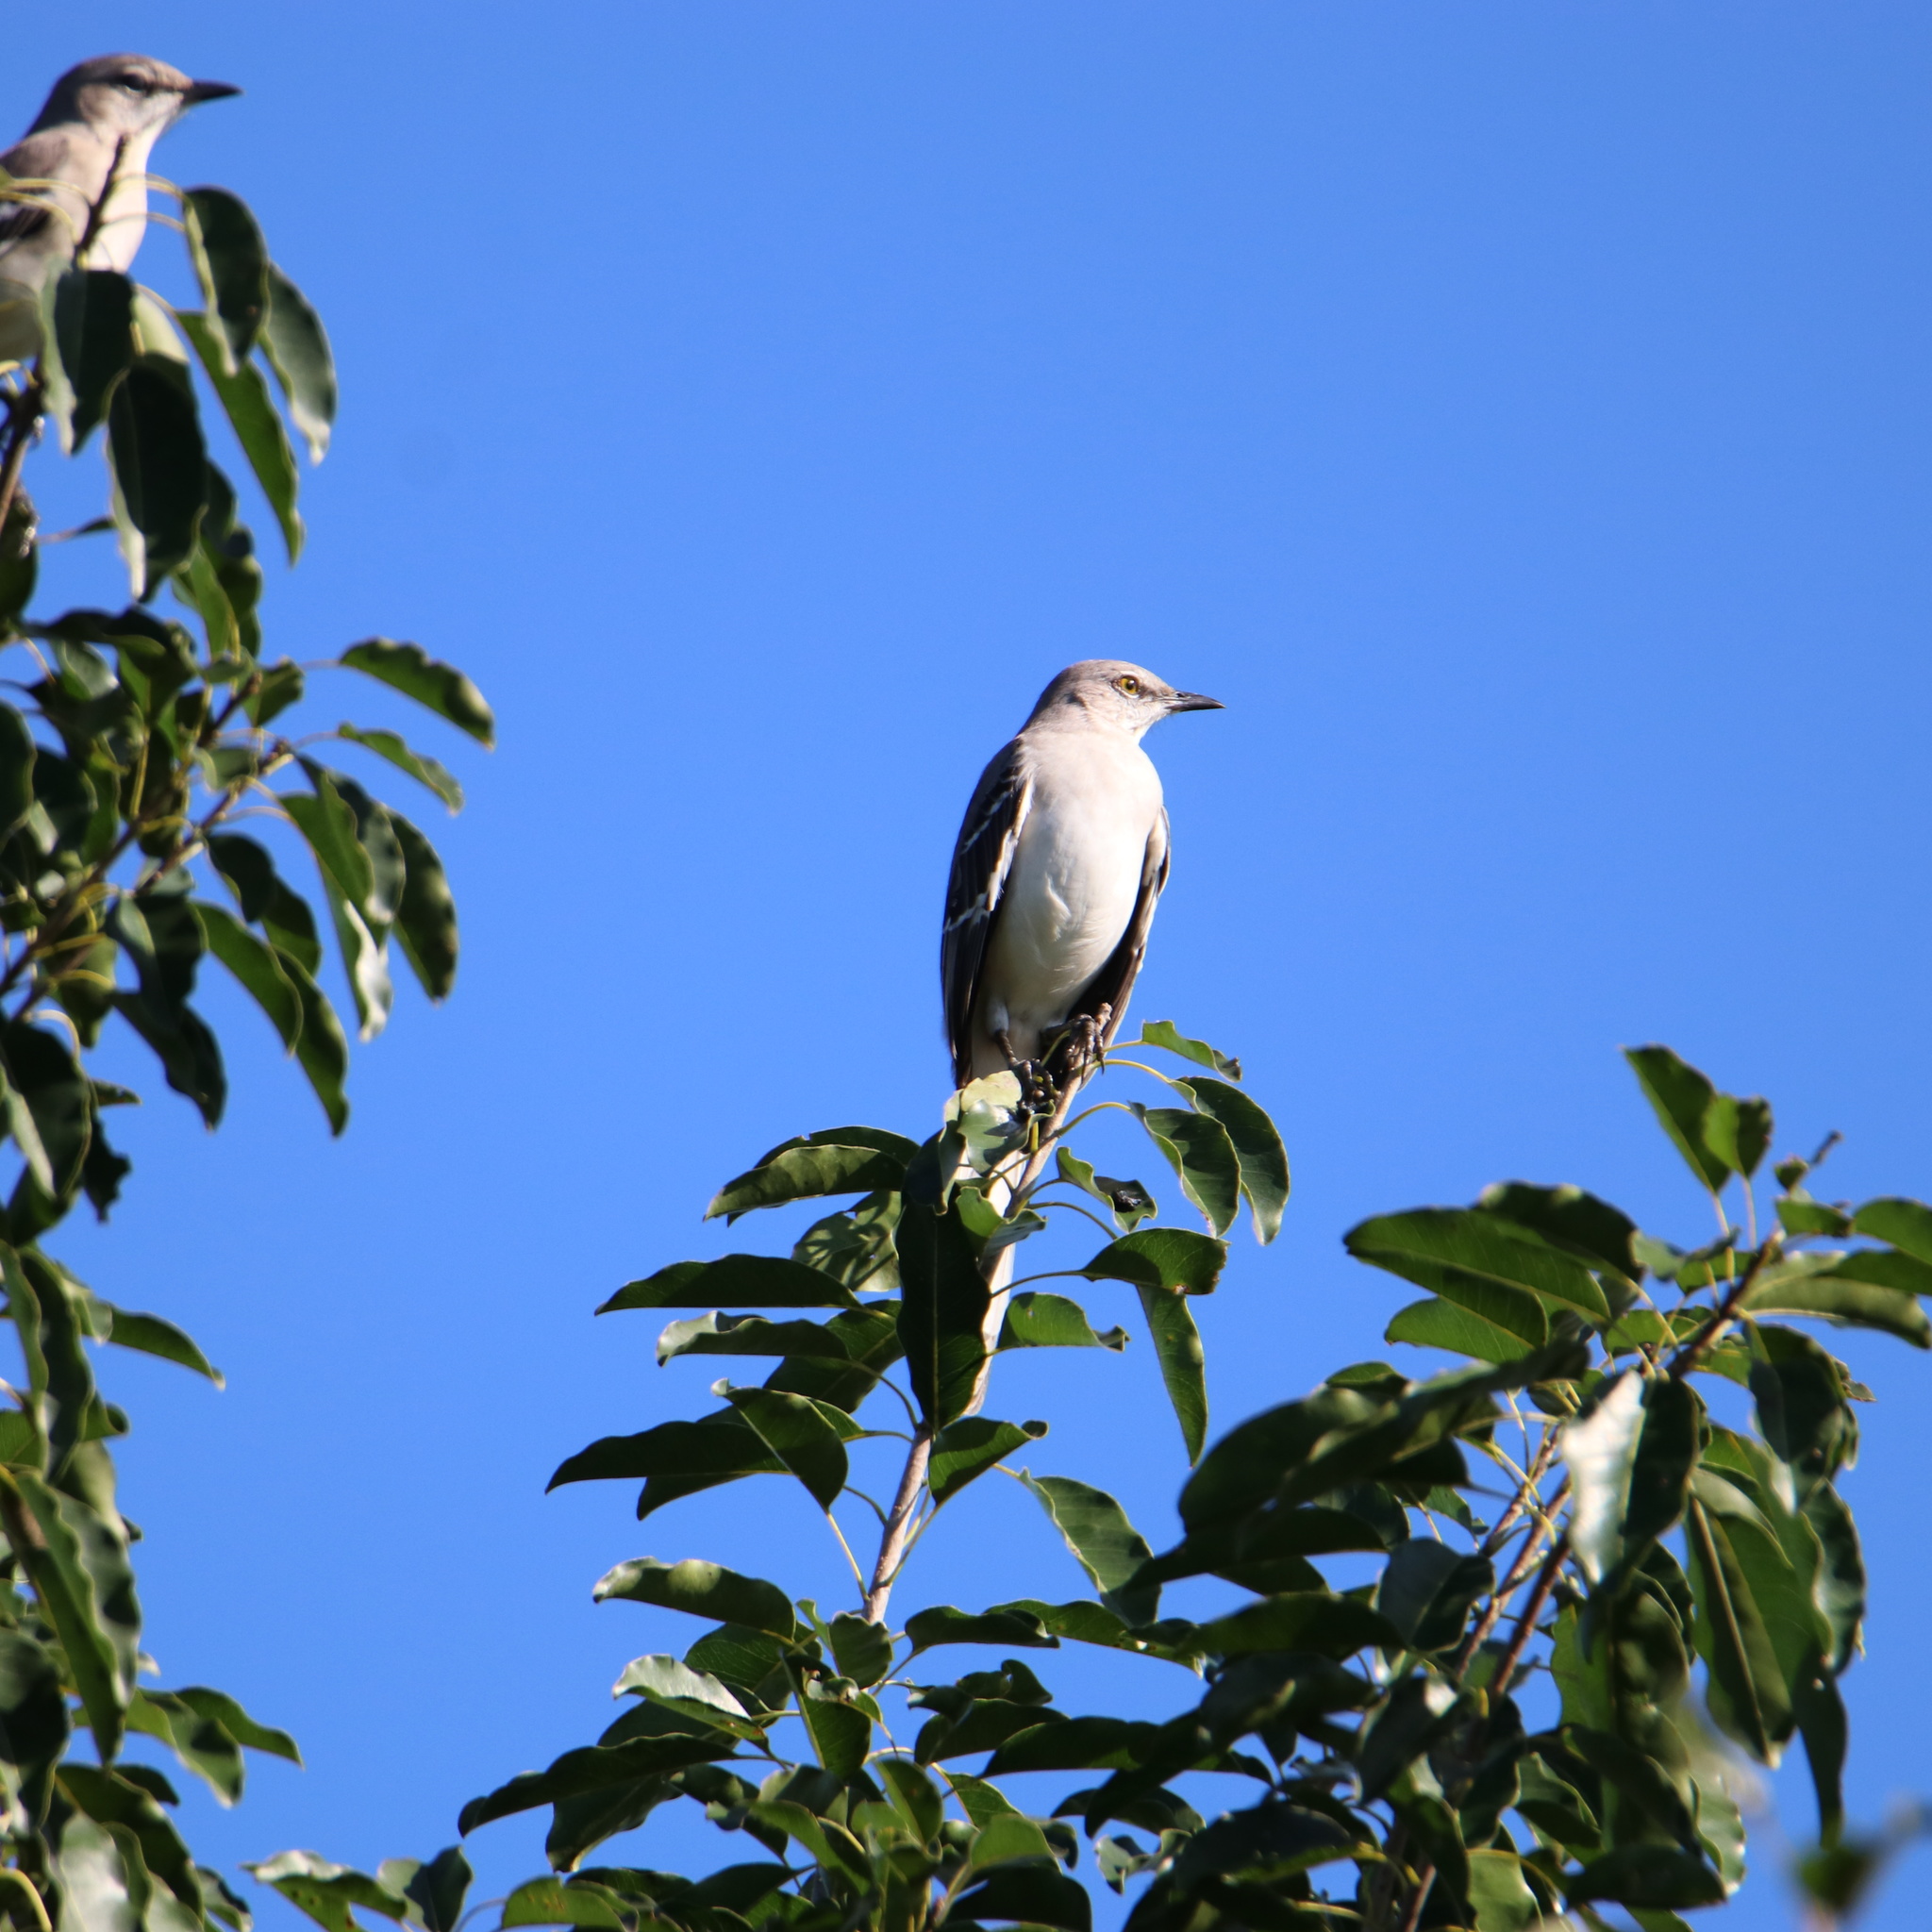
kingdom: Animalia
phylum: Chordata
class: Aves
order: Passeriformes
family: Mimidae
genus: Mimus
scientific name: Mimus polyglottos
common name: Northern mockingbird
